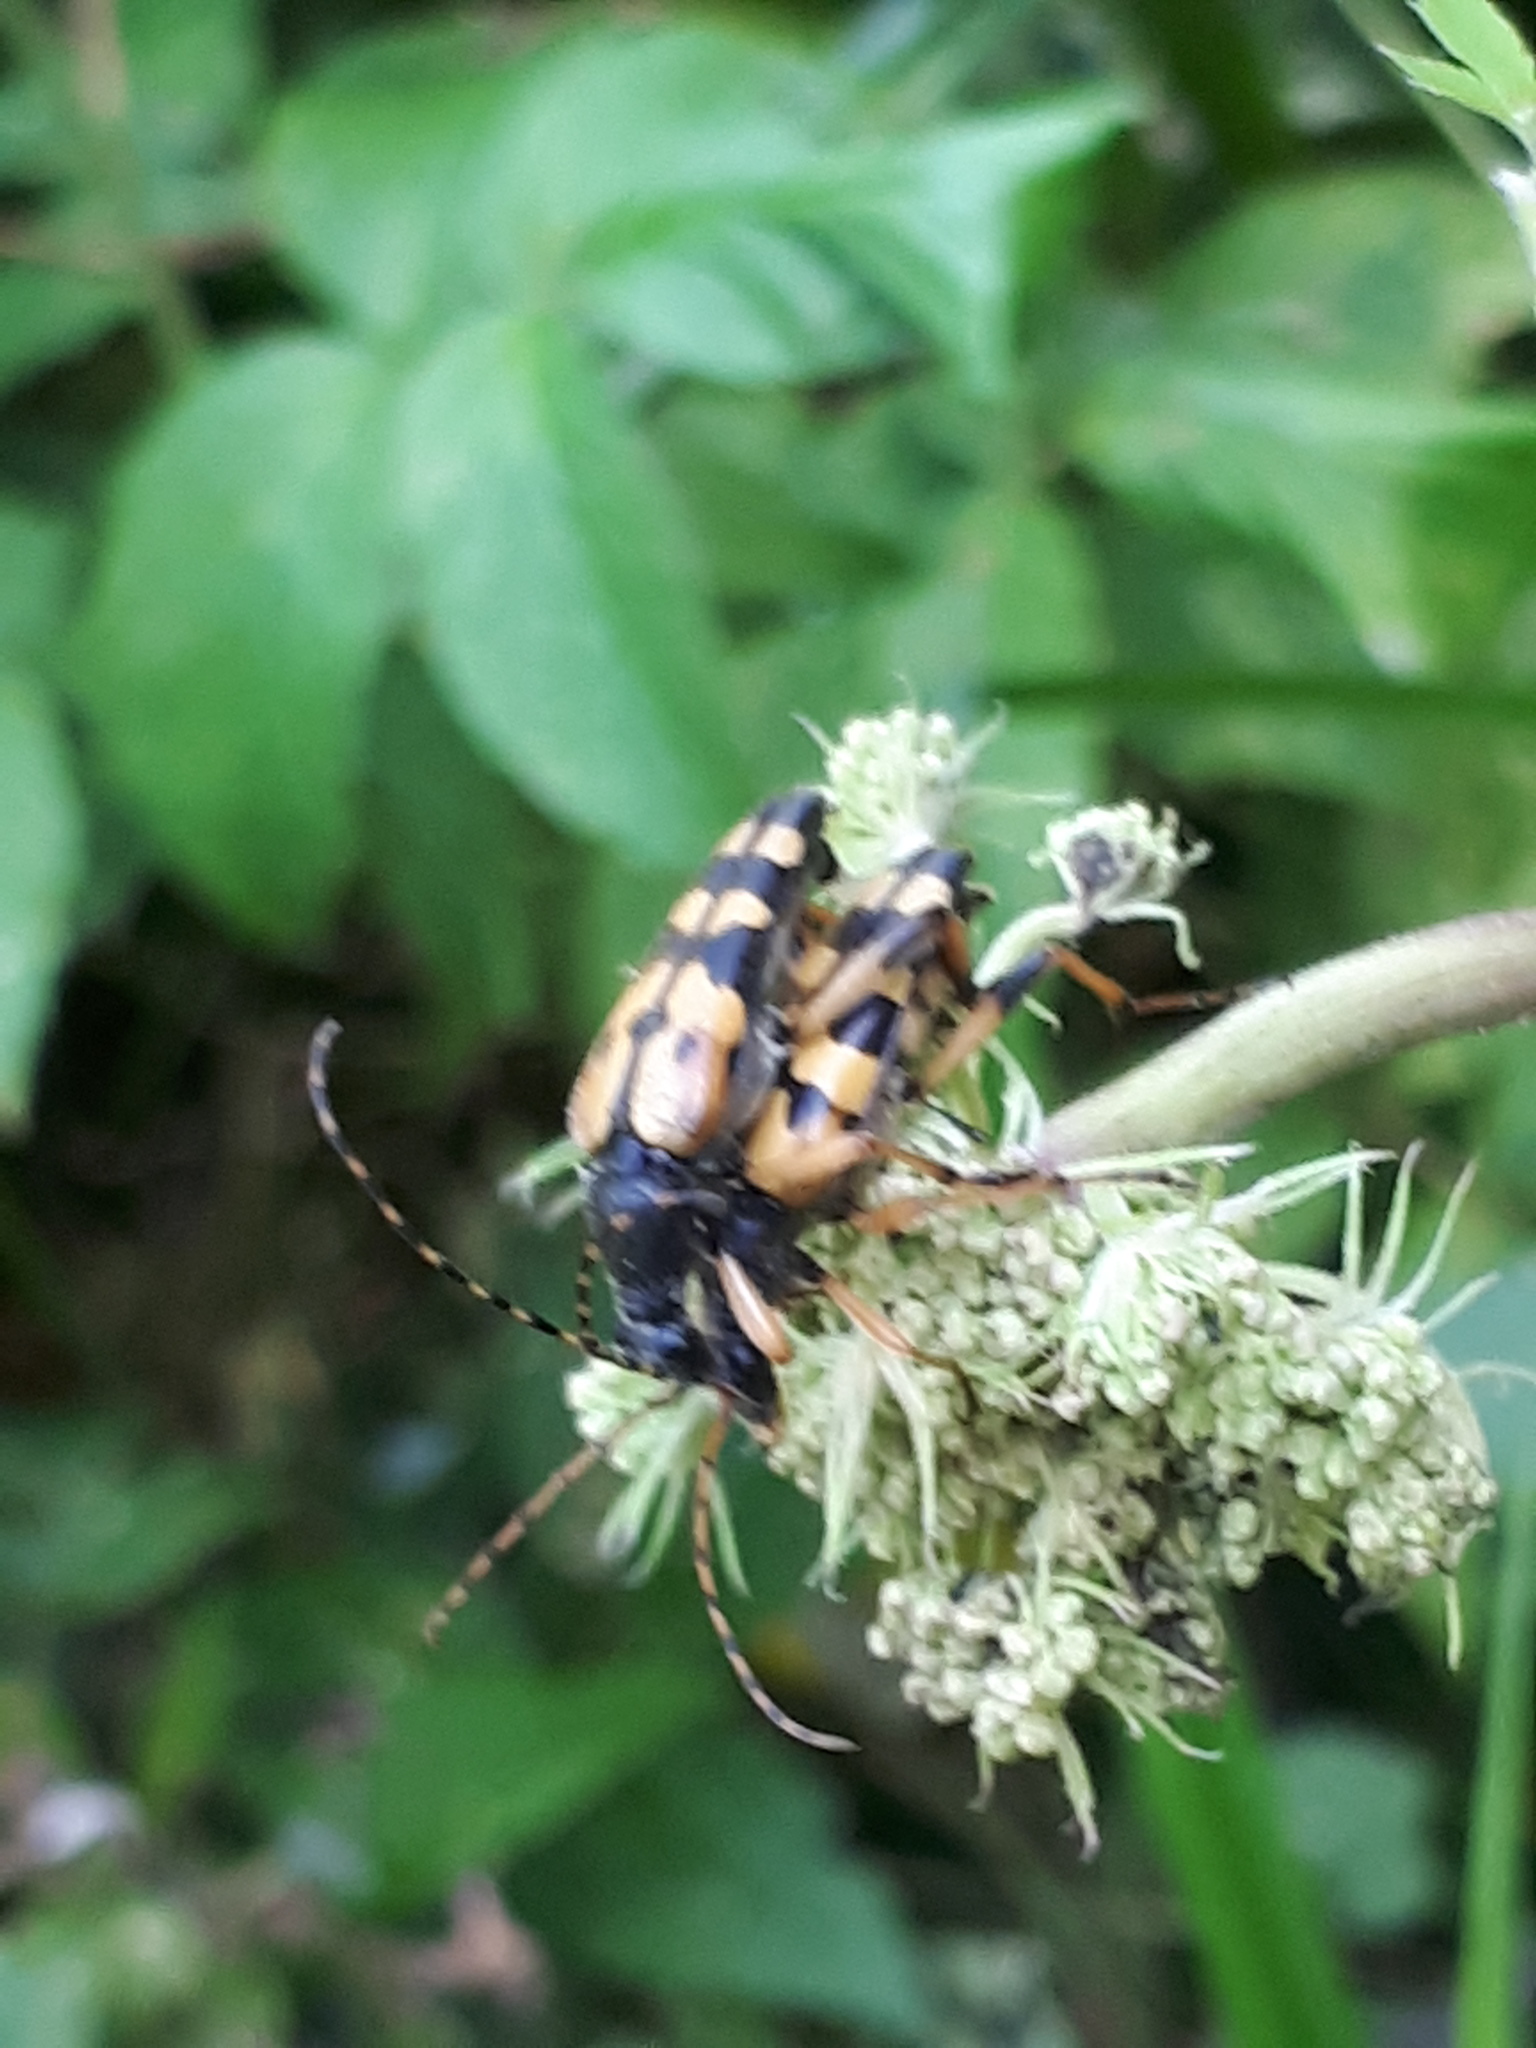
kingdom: Animalia
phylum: Arthropoda
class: Insecta
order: Coleoptera
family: Cerambycidae
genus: Rutpela
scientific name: Rutpela maculata
